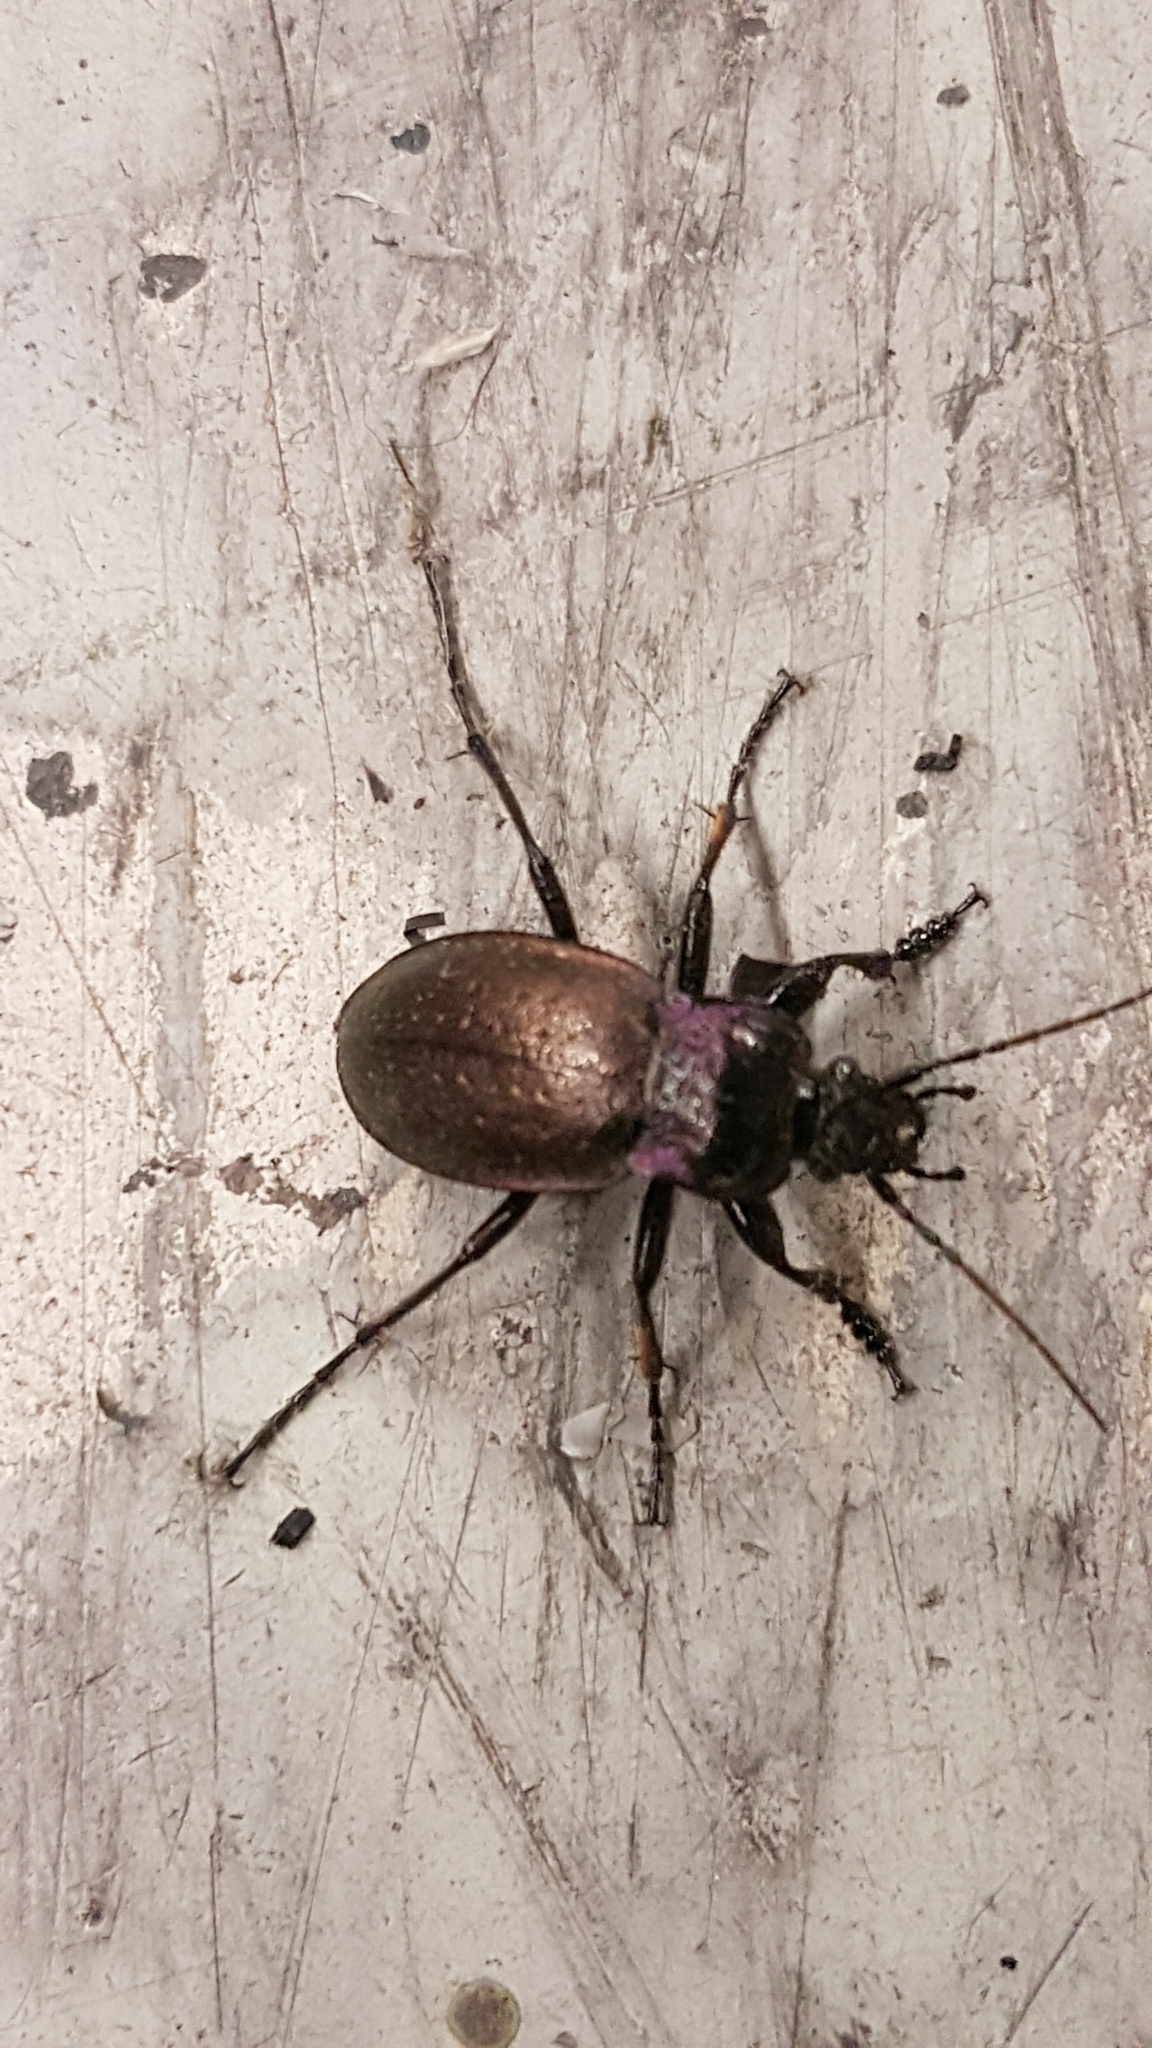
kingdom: Animalia
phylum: Arthropoda
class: Insecta
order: Coleoptera
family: Carabidae
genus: Carabus
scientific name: Carabus nemoralis
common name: European ground beetle
